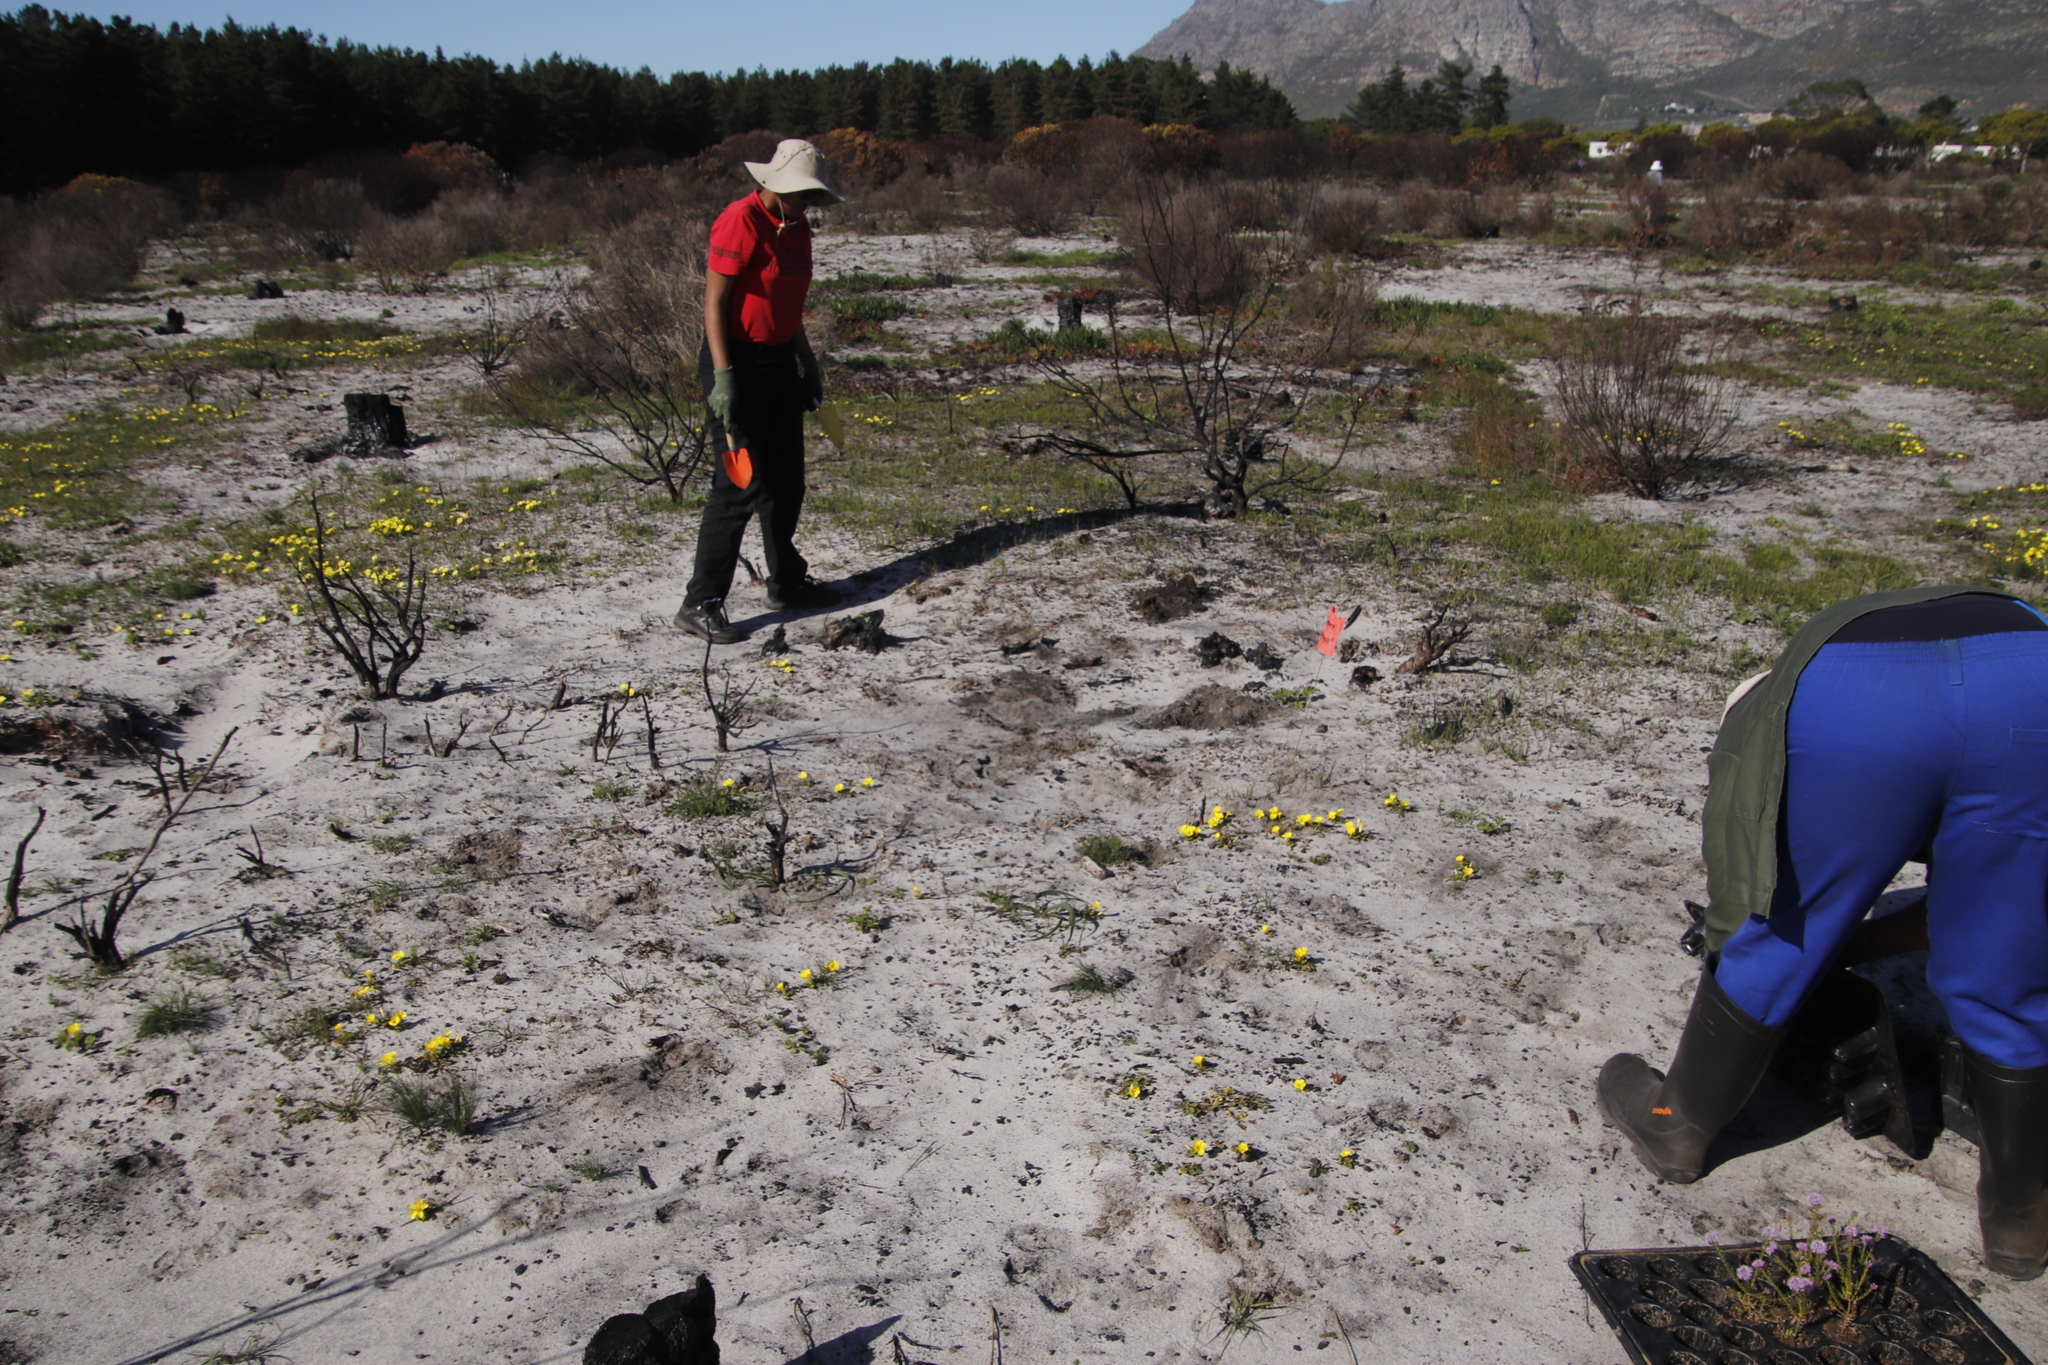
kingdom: Plantae
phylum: Tracheophyta
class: Magnoliopsida
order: Oxalidales
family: Oxalidaceae
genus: Oxalis
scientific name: Oxalis luteola
